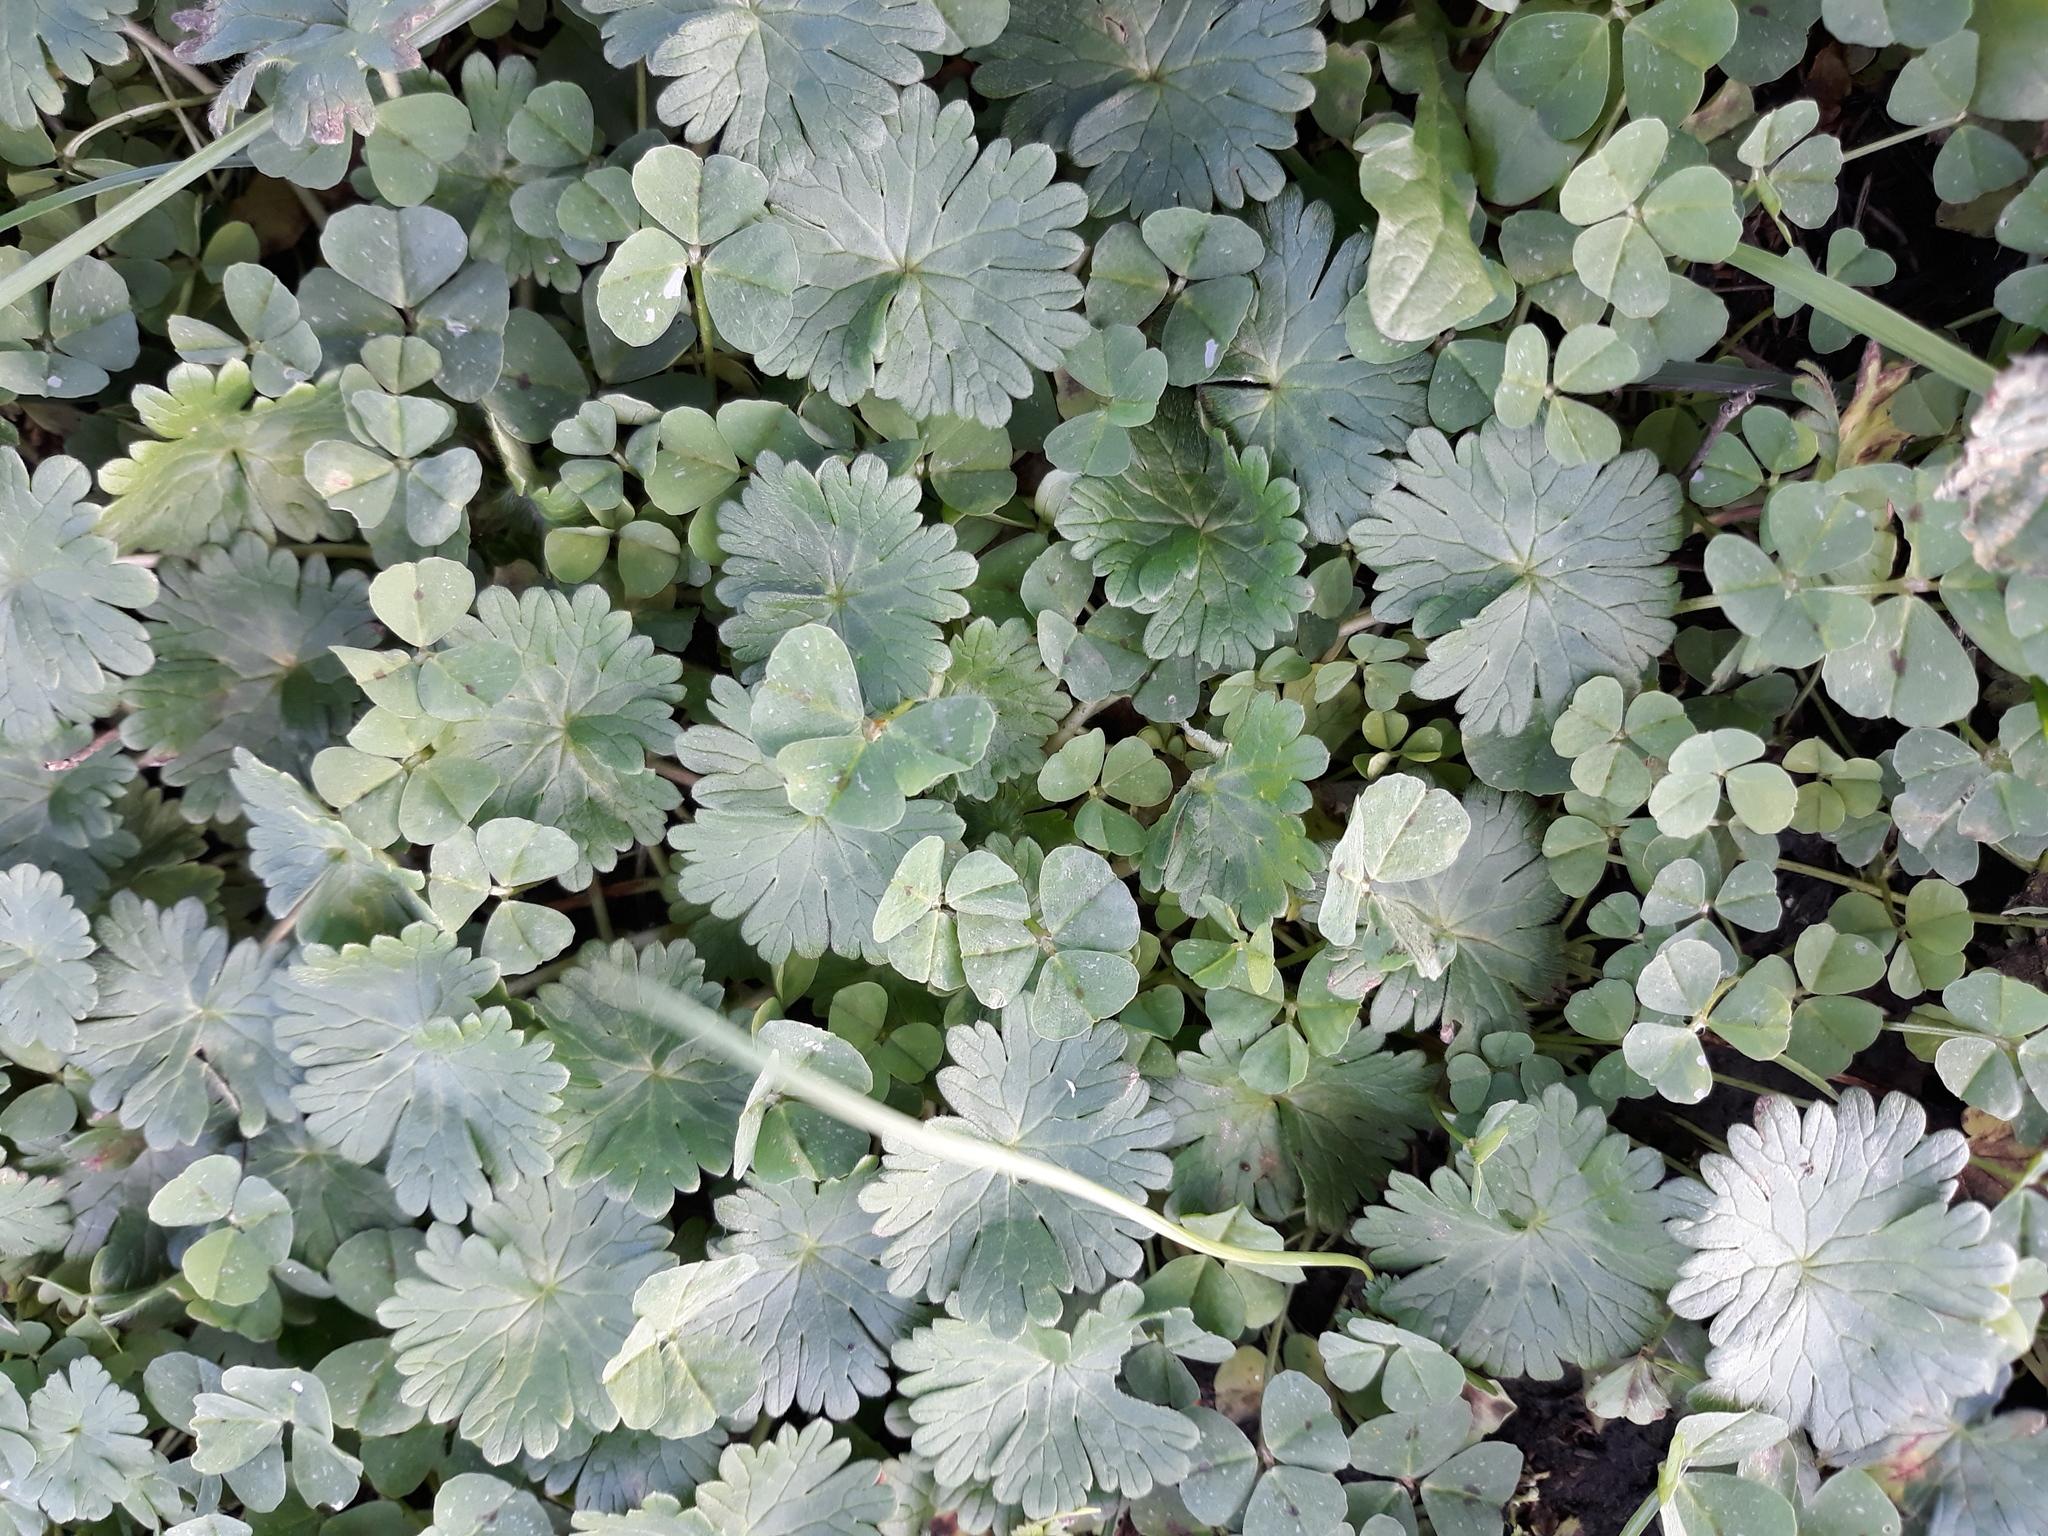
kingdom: Plantae
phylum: Tracheophyta
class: Magnoliopsida
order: Fabales
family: Fabaceae
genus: Medicago
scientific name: Medicago arabica
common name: Spotted medick
